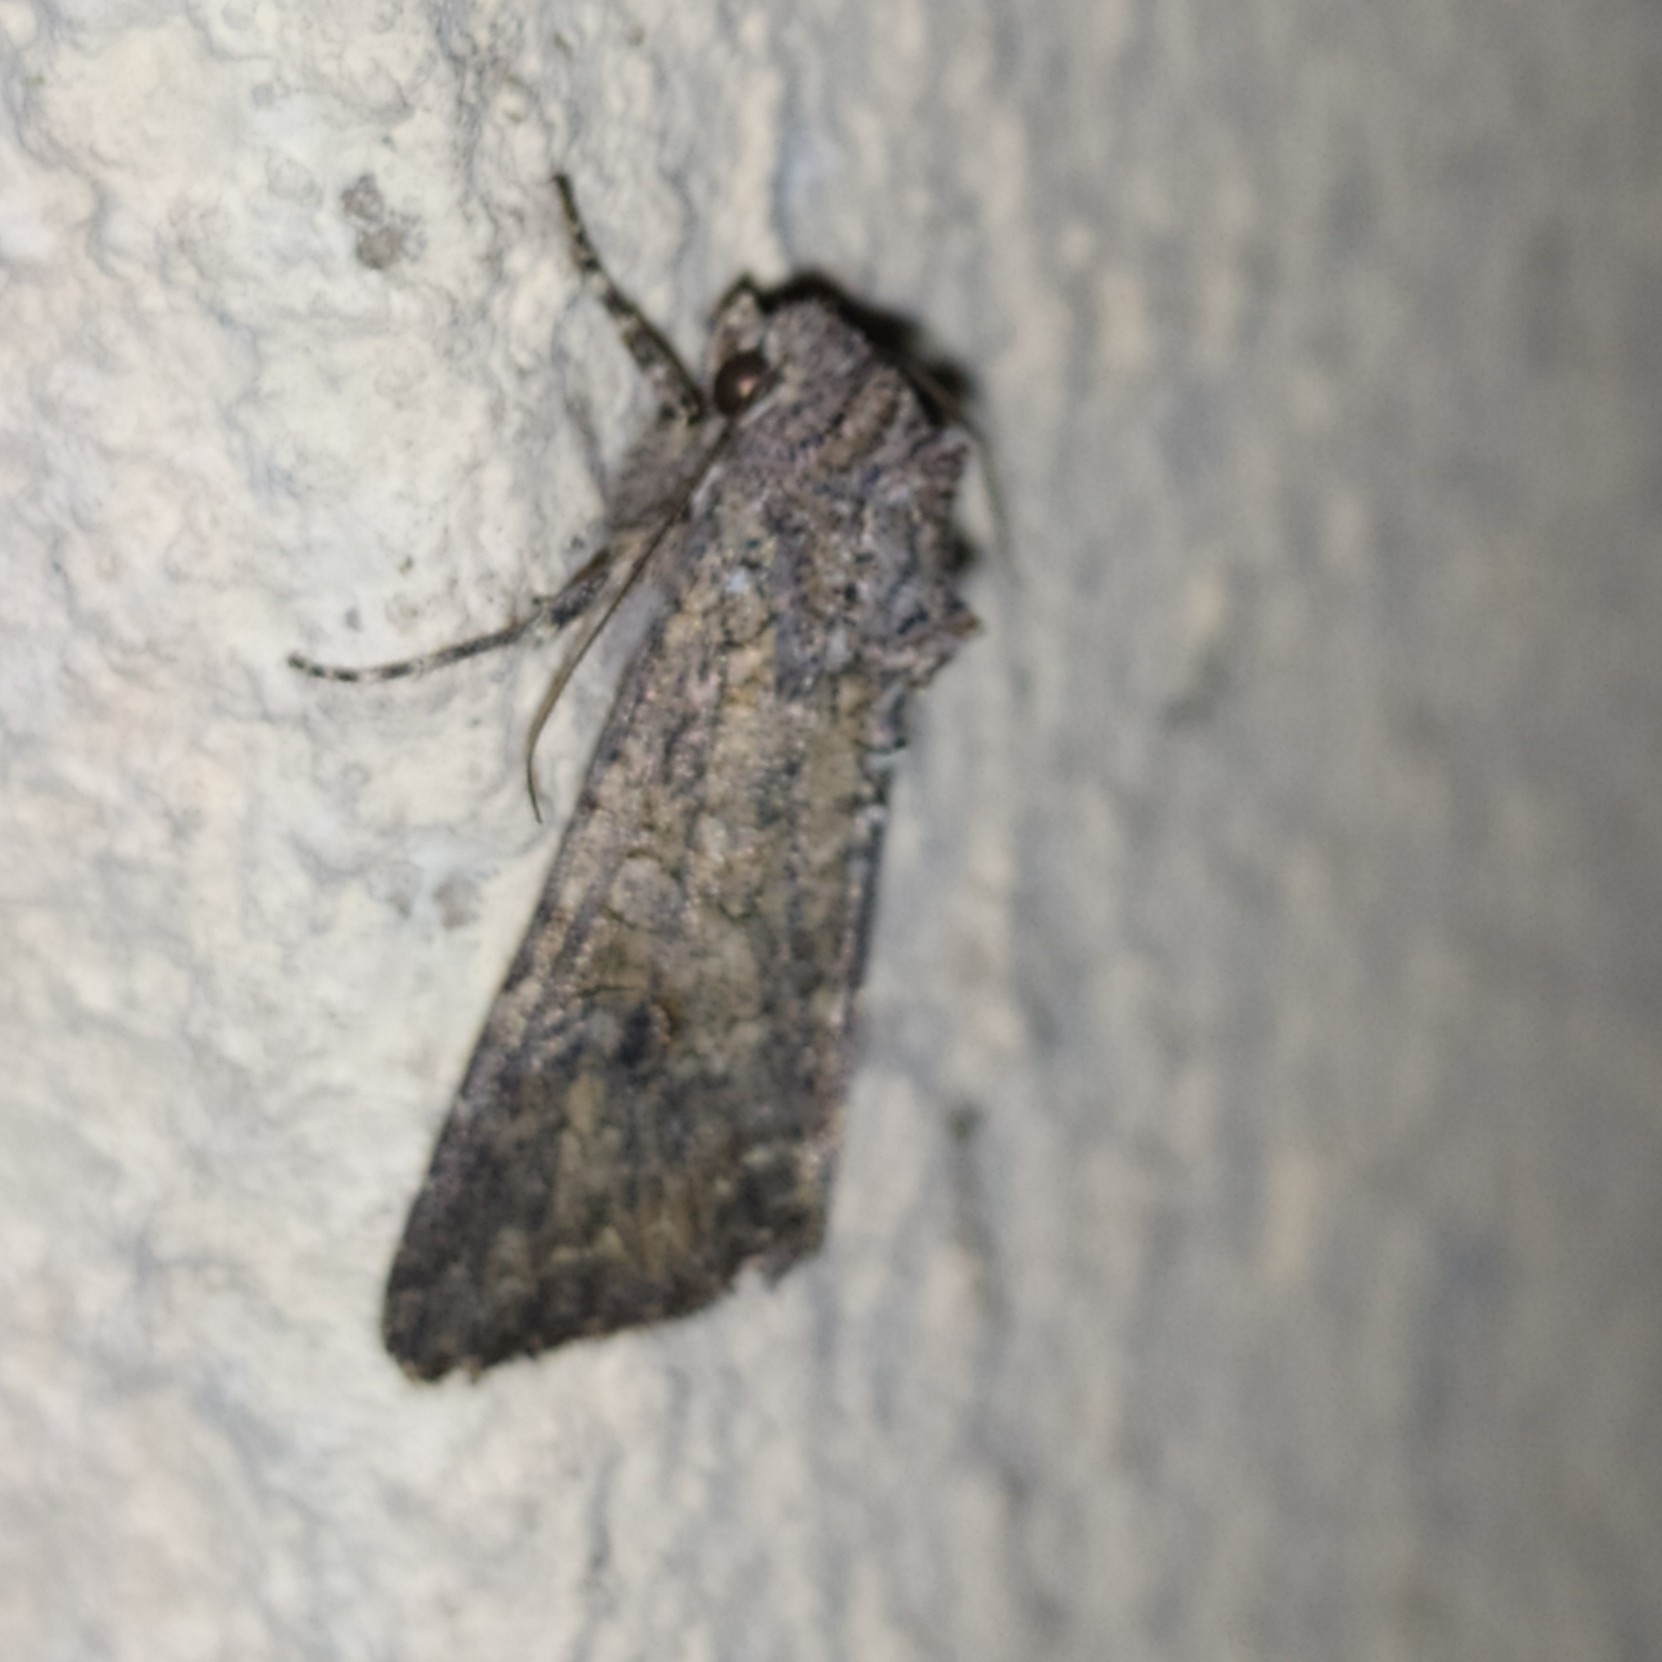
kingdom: Animalia
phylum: Arthropoda
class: Insecta
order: Lepidoptera
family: Noctuidae
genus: Anarta
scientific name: Anarta trifolii
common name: Clover cutworm moth
